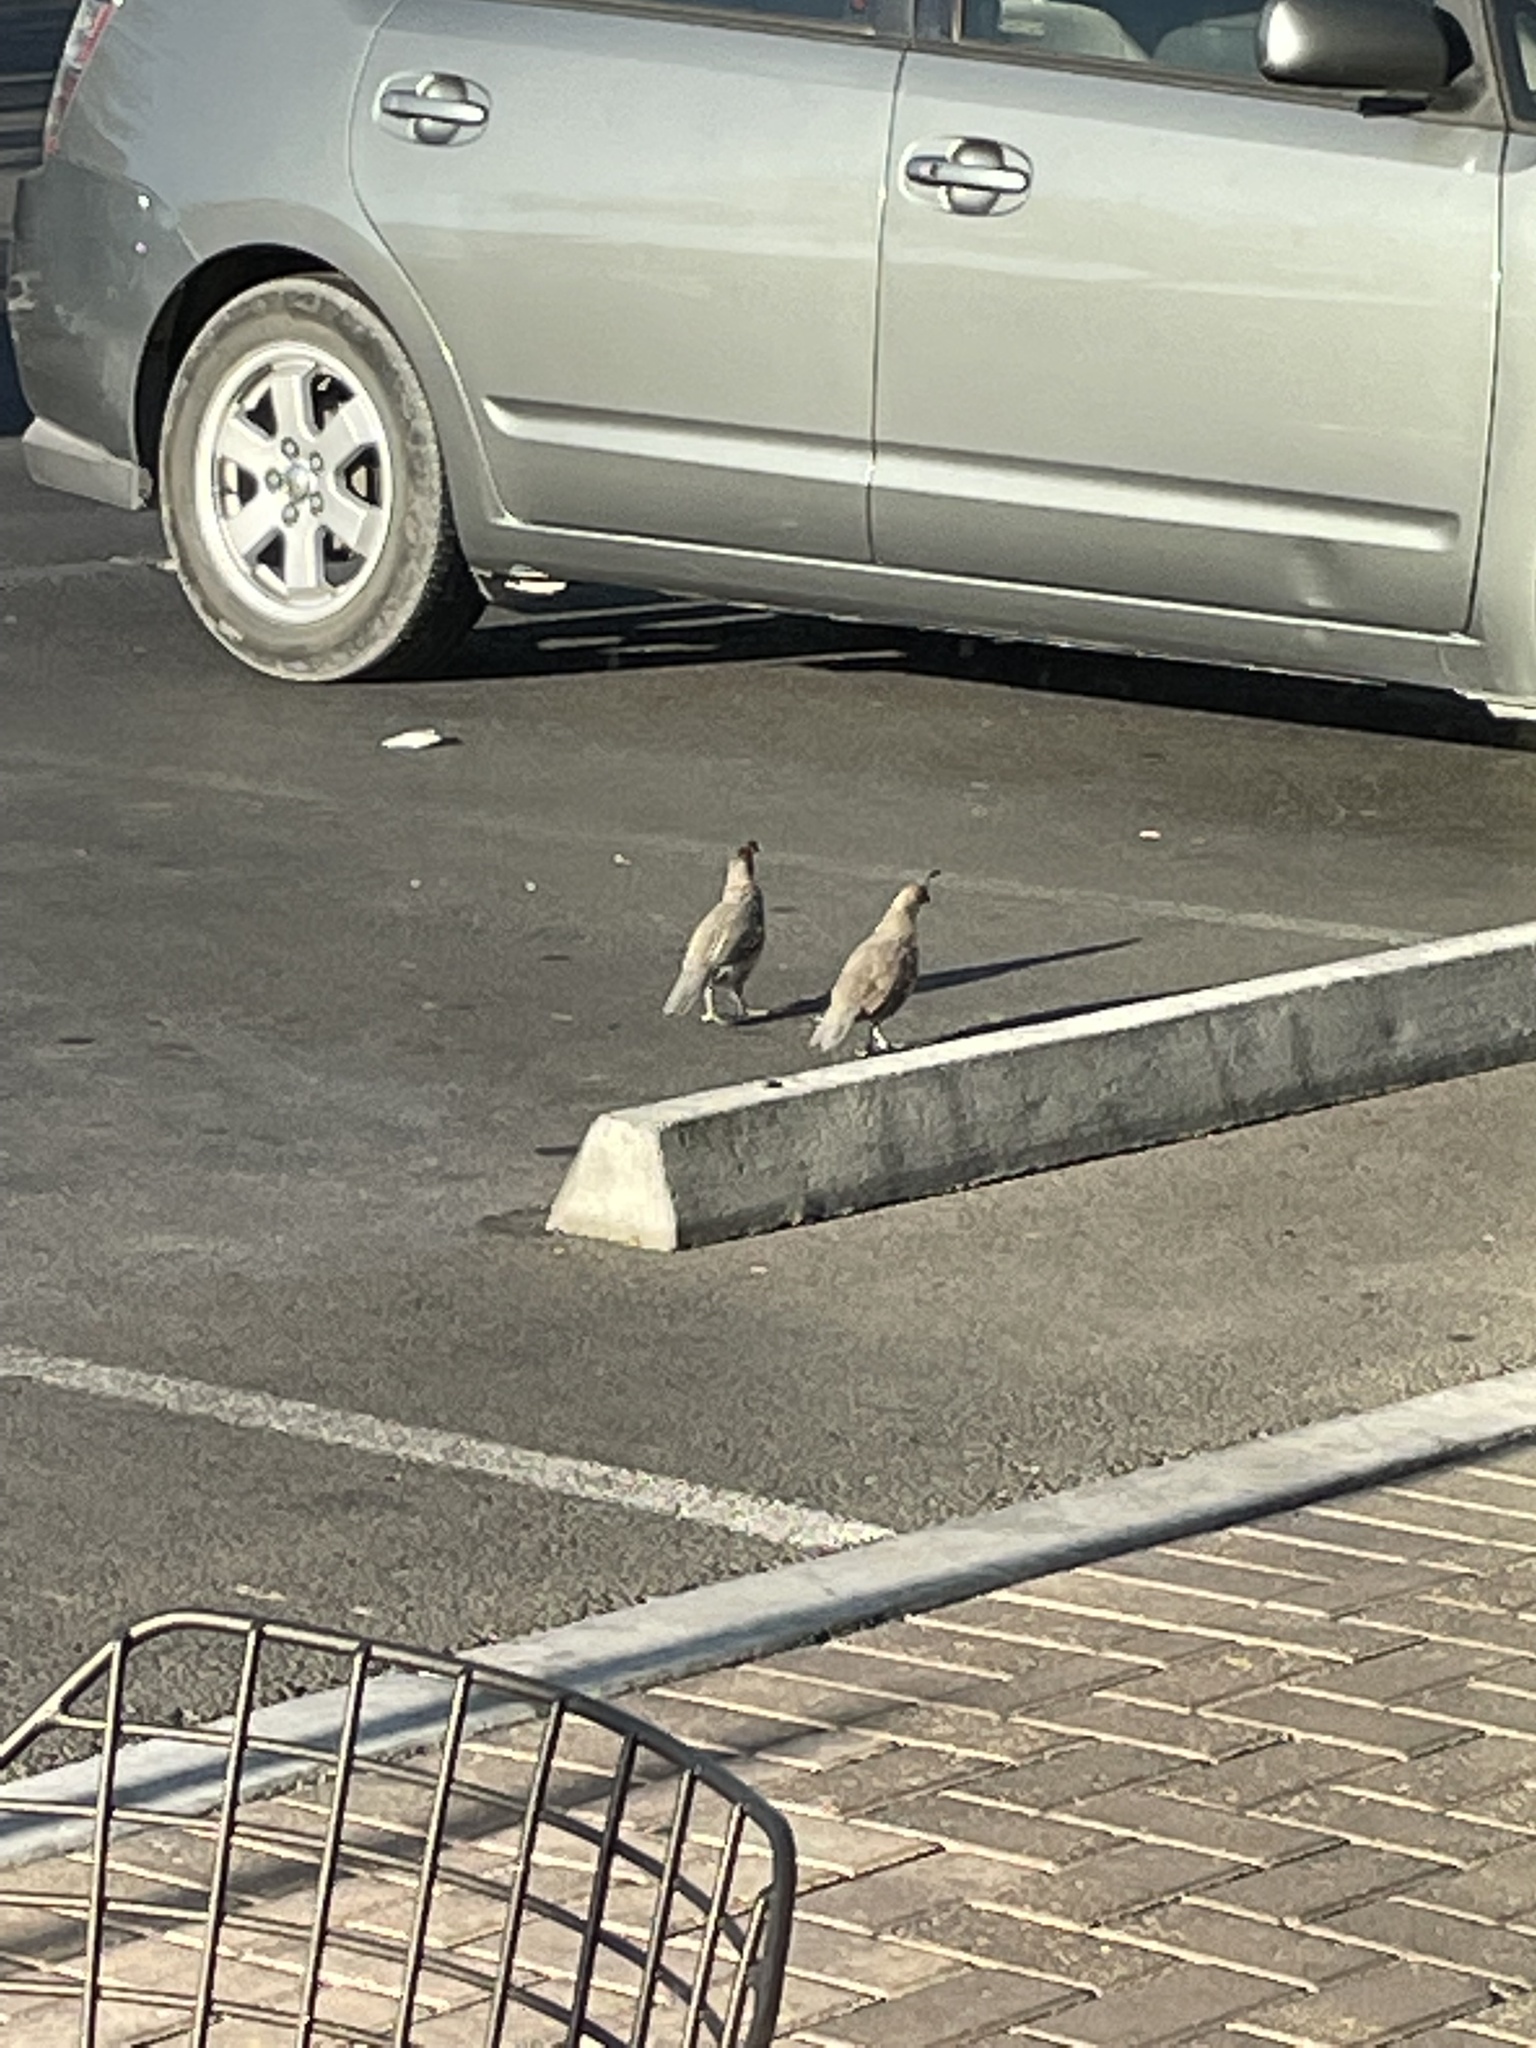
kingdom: Animalia
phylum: Chordata
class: Aves
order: Galliformes
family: Odontophoridae
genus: Callipepla
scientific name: Callipepla gambelii
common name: Gambel's quail
